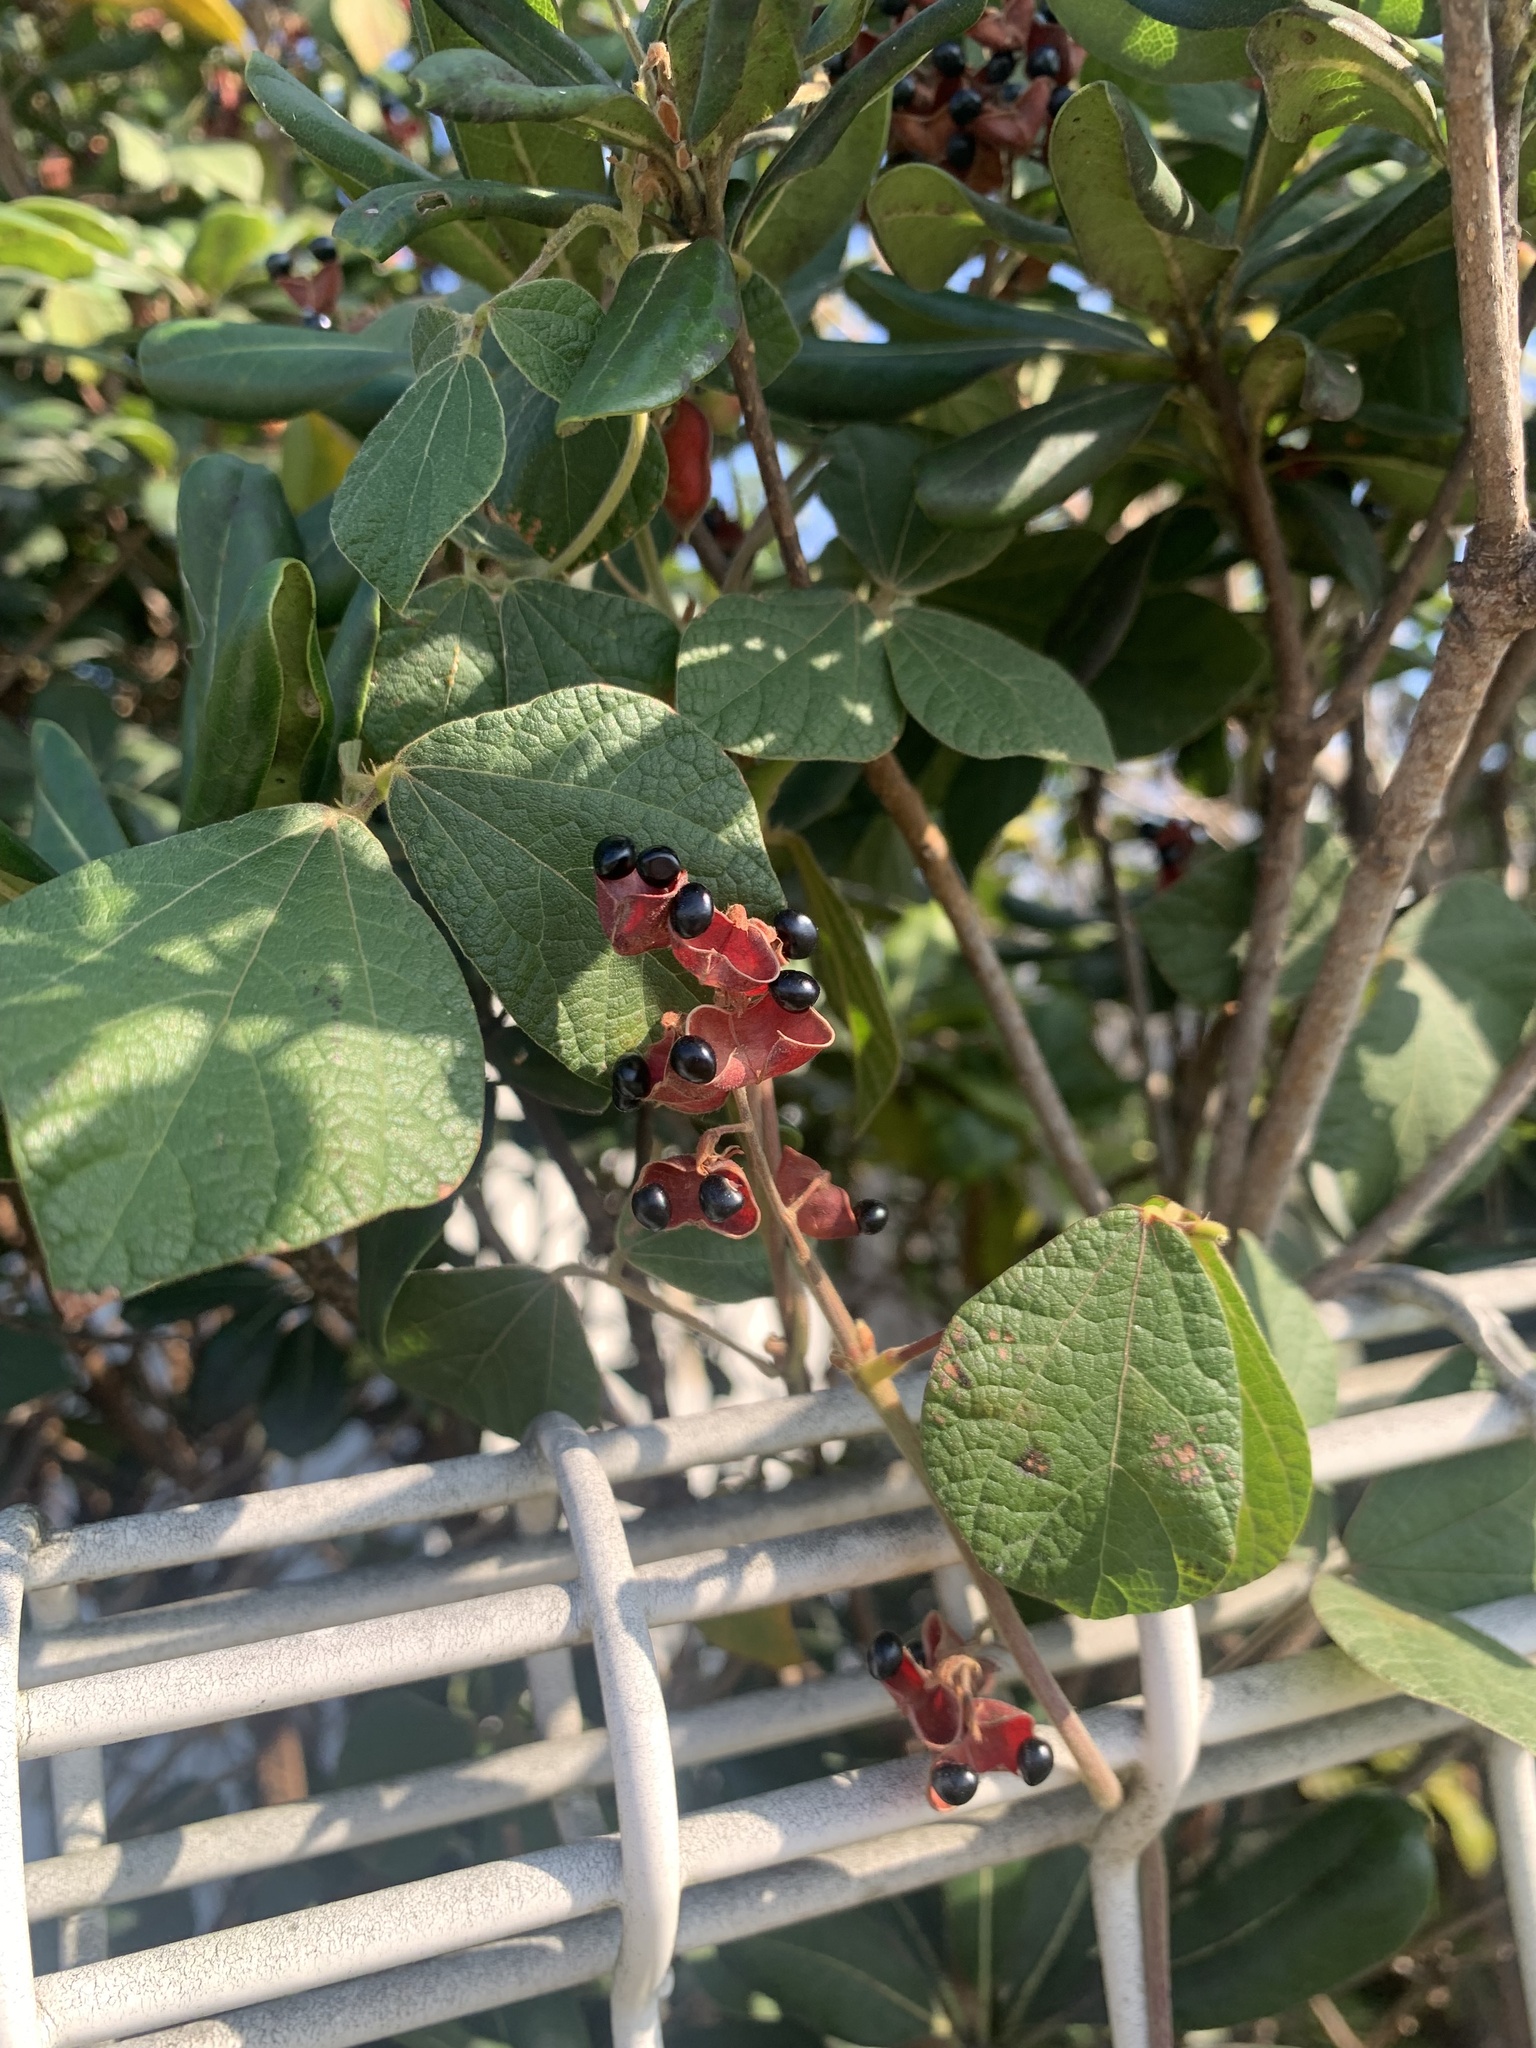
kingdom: Plantae
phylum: Tracheophyta
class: Magnoliopsida
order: Fabales
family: Fabaceae
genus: Rhynchosia
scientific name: Rhynchosia volubilis
